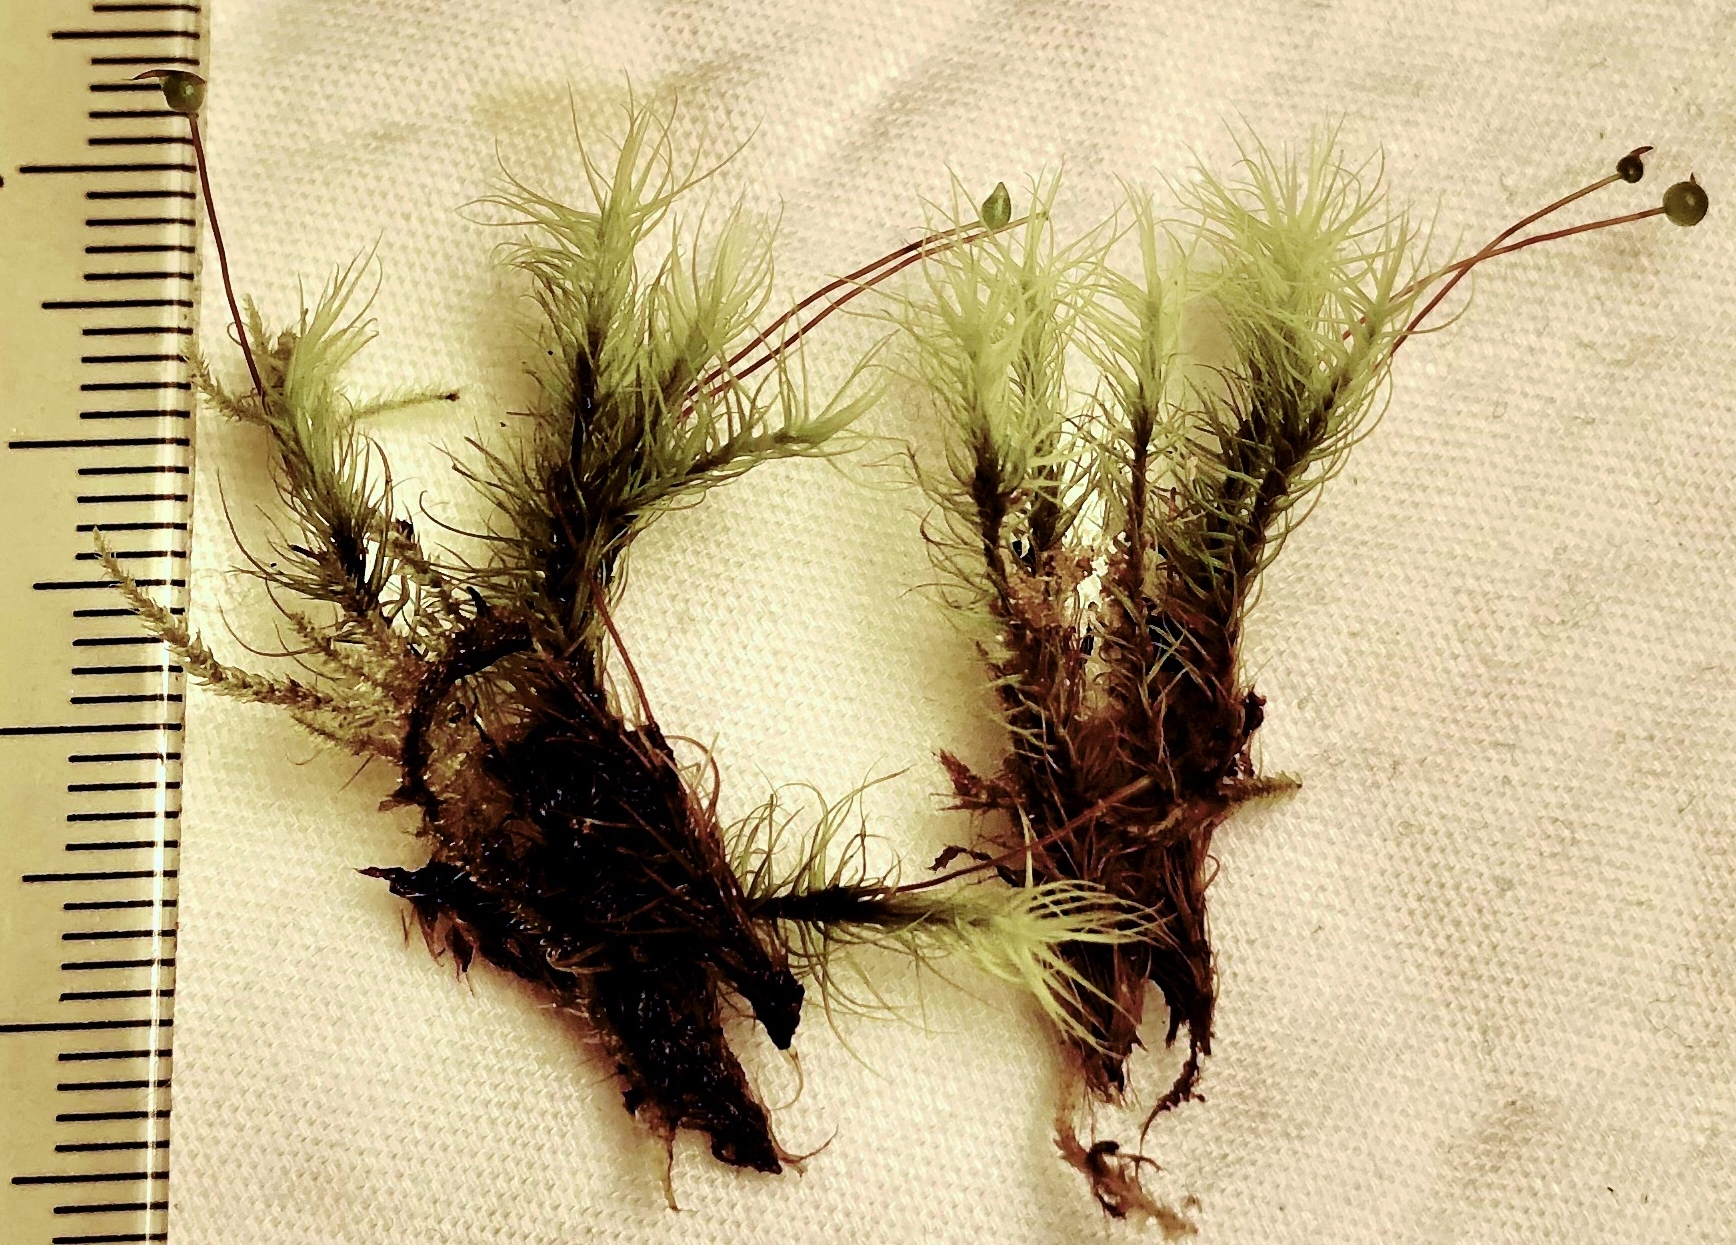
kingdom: Plantae
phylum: Bryophyta
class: Bryopsida
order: Bartramiales
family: Bartramiaceae
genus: Bartramia
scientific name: Bartramia ithyphylla
